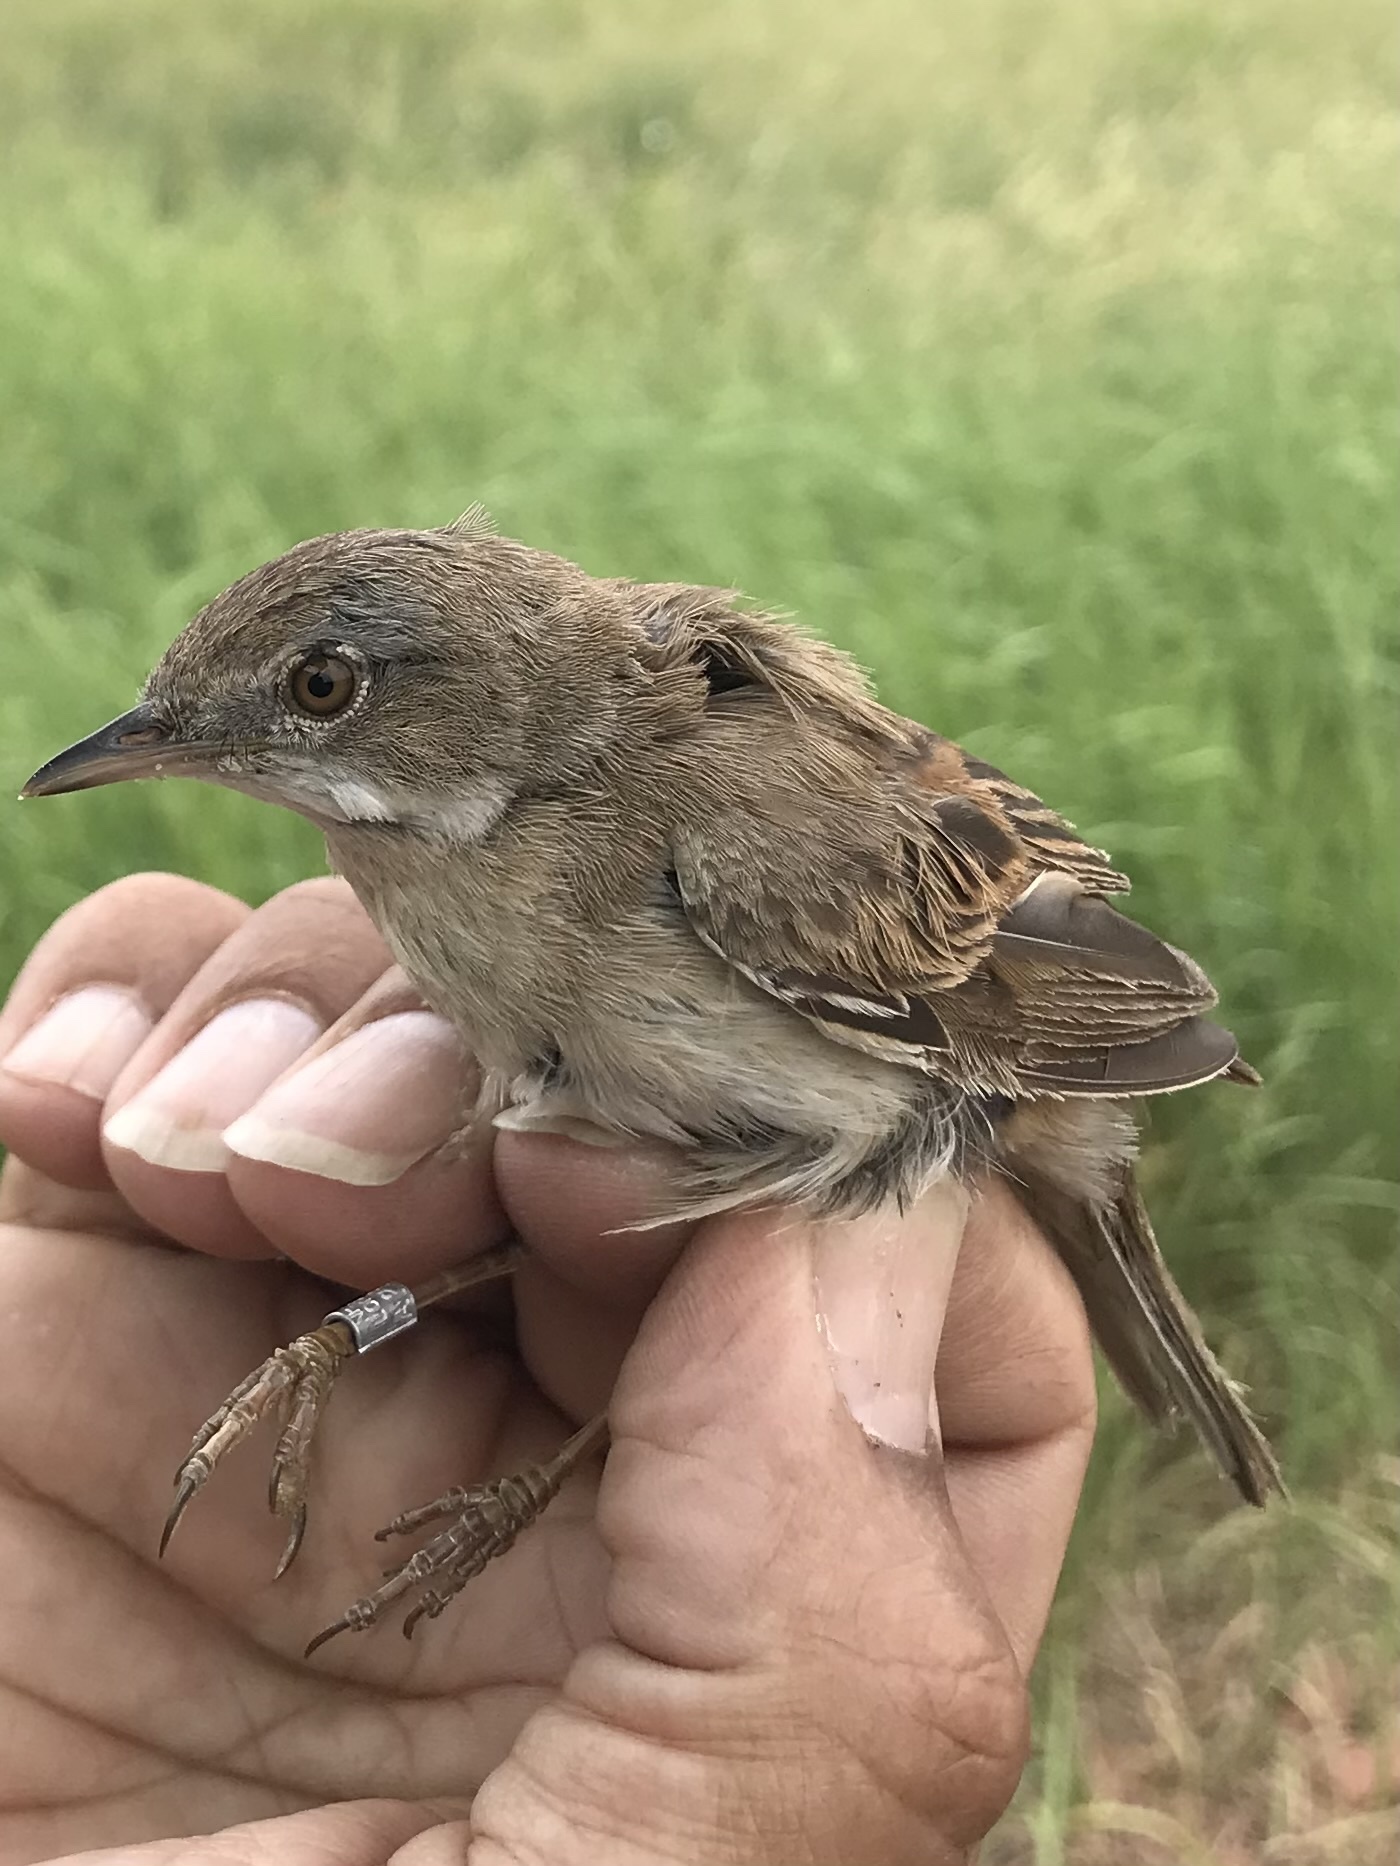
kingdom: Animalia
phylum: Chordata
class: Aves
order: Passeriformes
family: Sylviidae
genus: Sylvia
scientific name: Sylvia communis
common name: Common whitethroat
